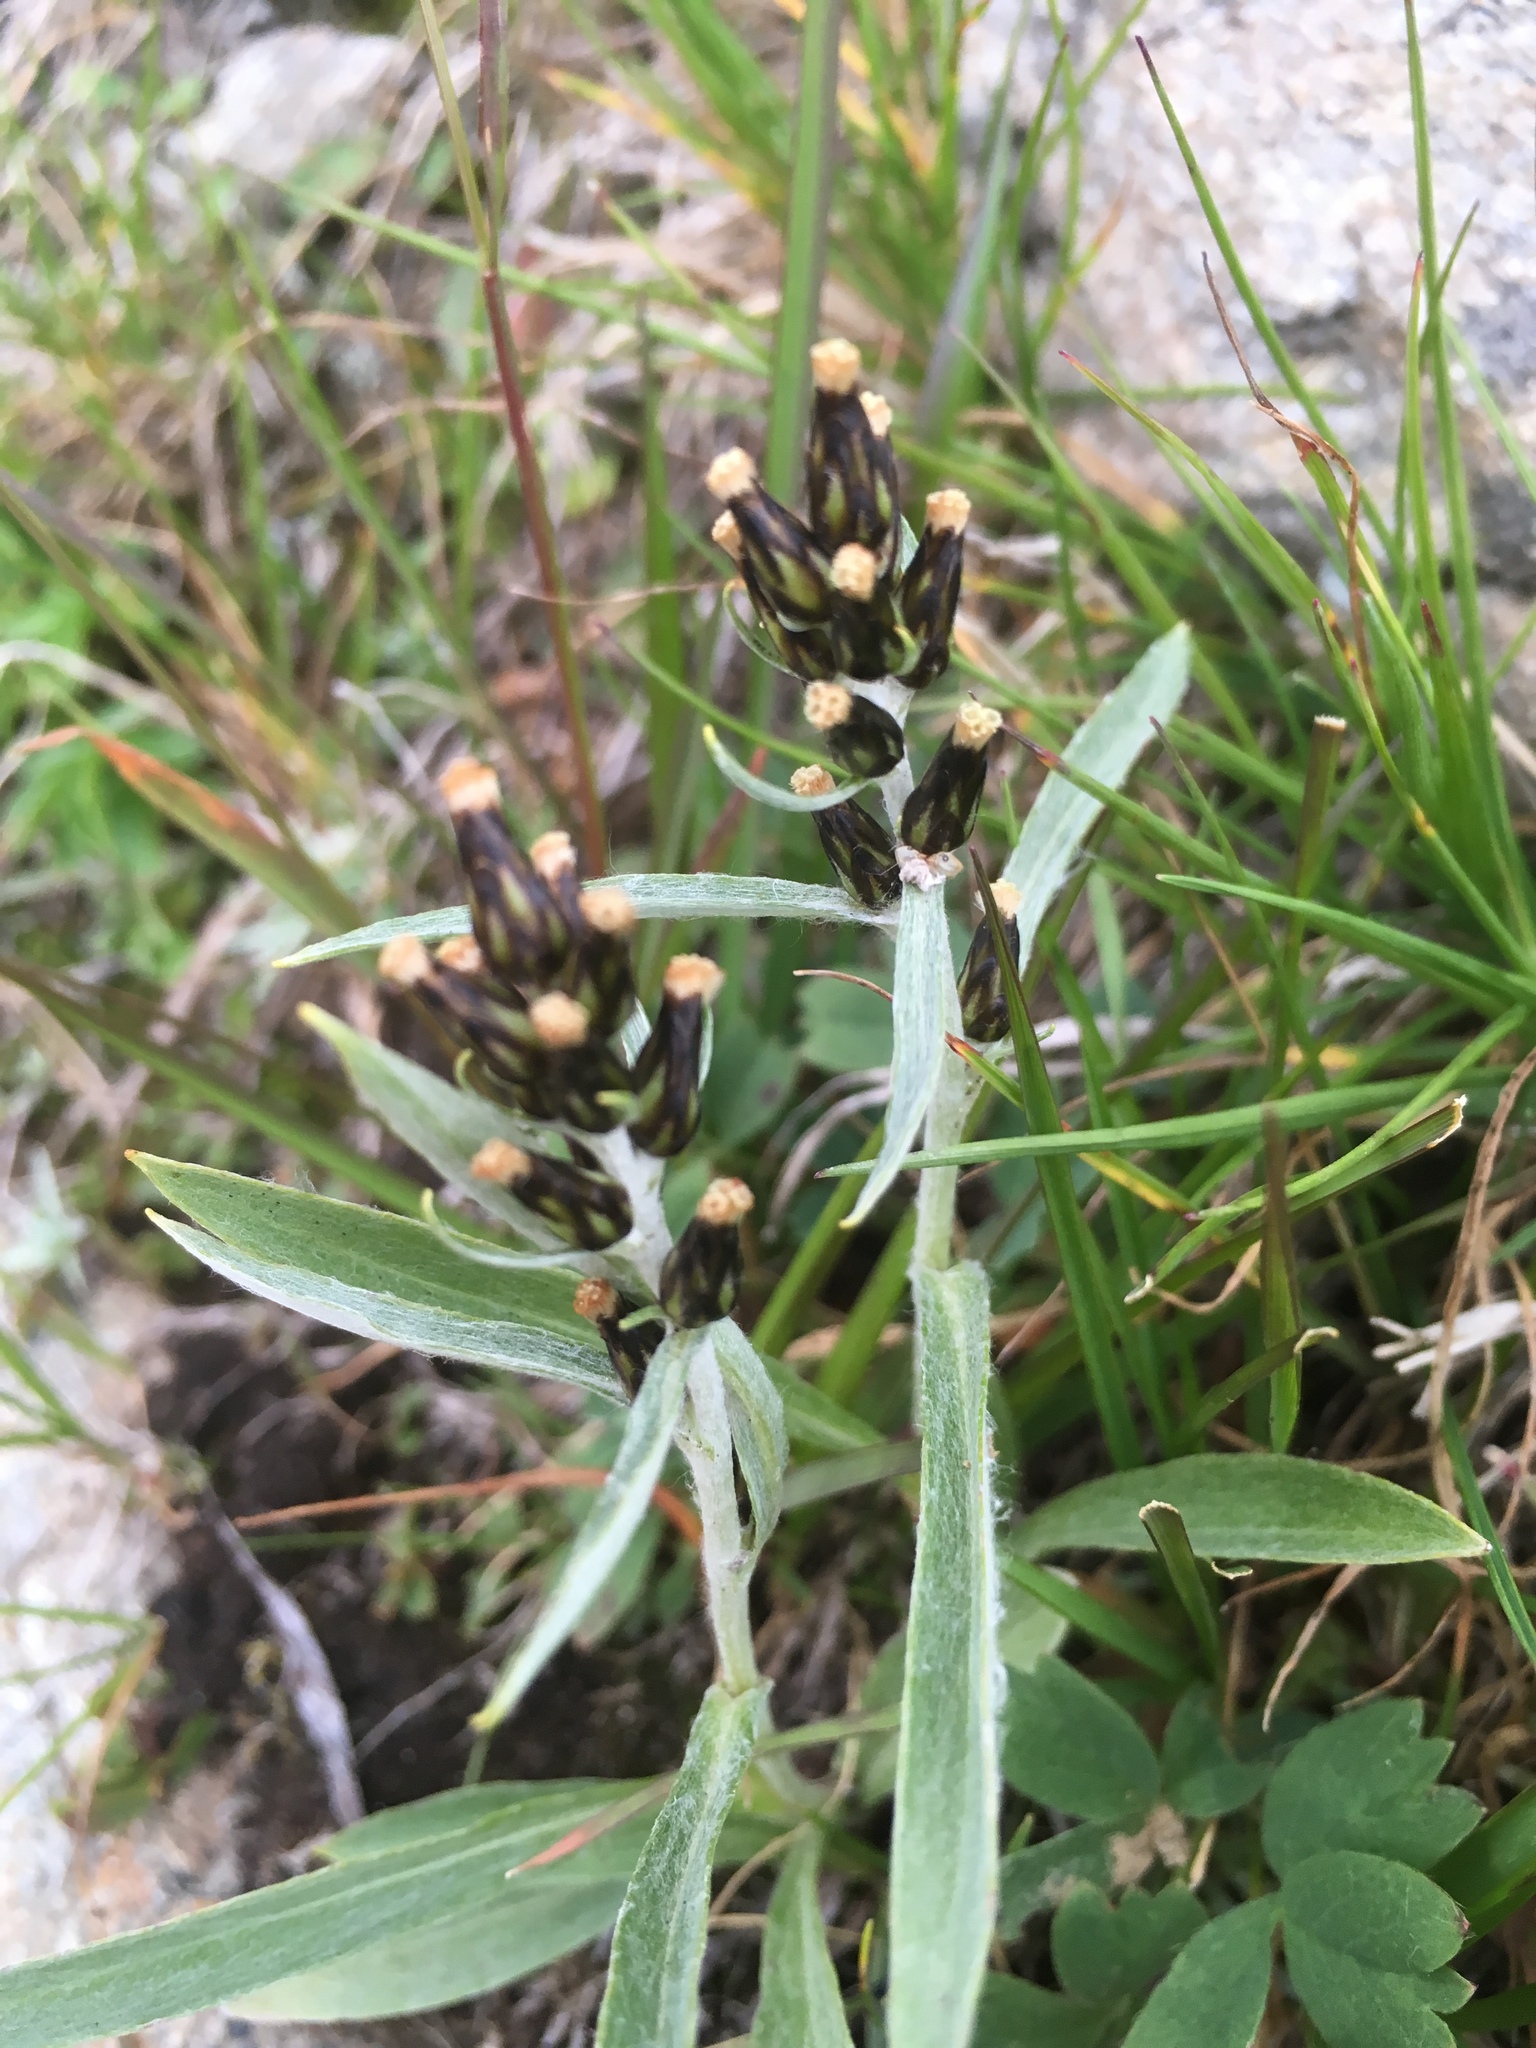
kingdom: Plantae
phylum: Tracheophyta
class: Magnoliopsida
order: Asterales
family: Asteraceae
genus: Omalotheca
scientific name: Omalotheca norvegica
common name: Norwegian arctic-cudweed
